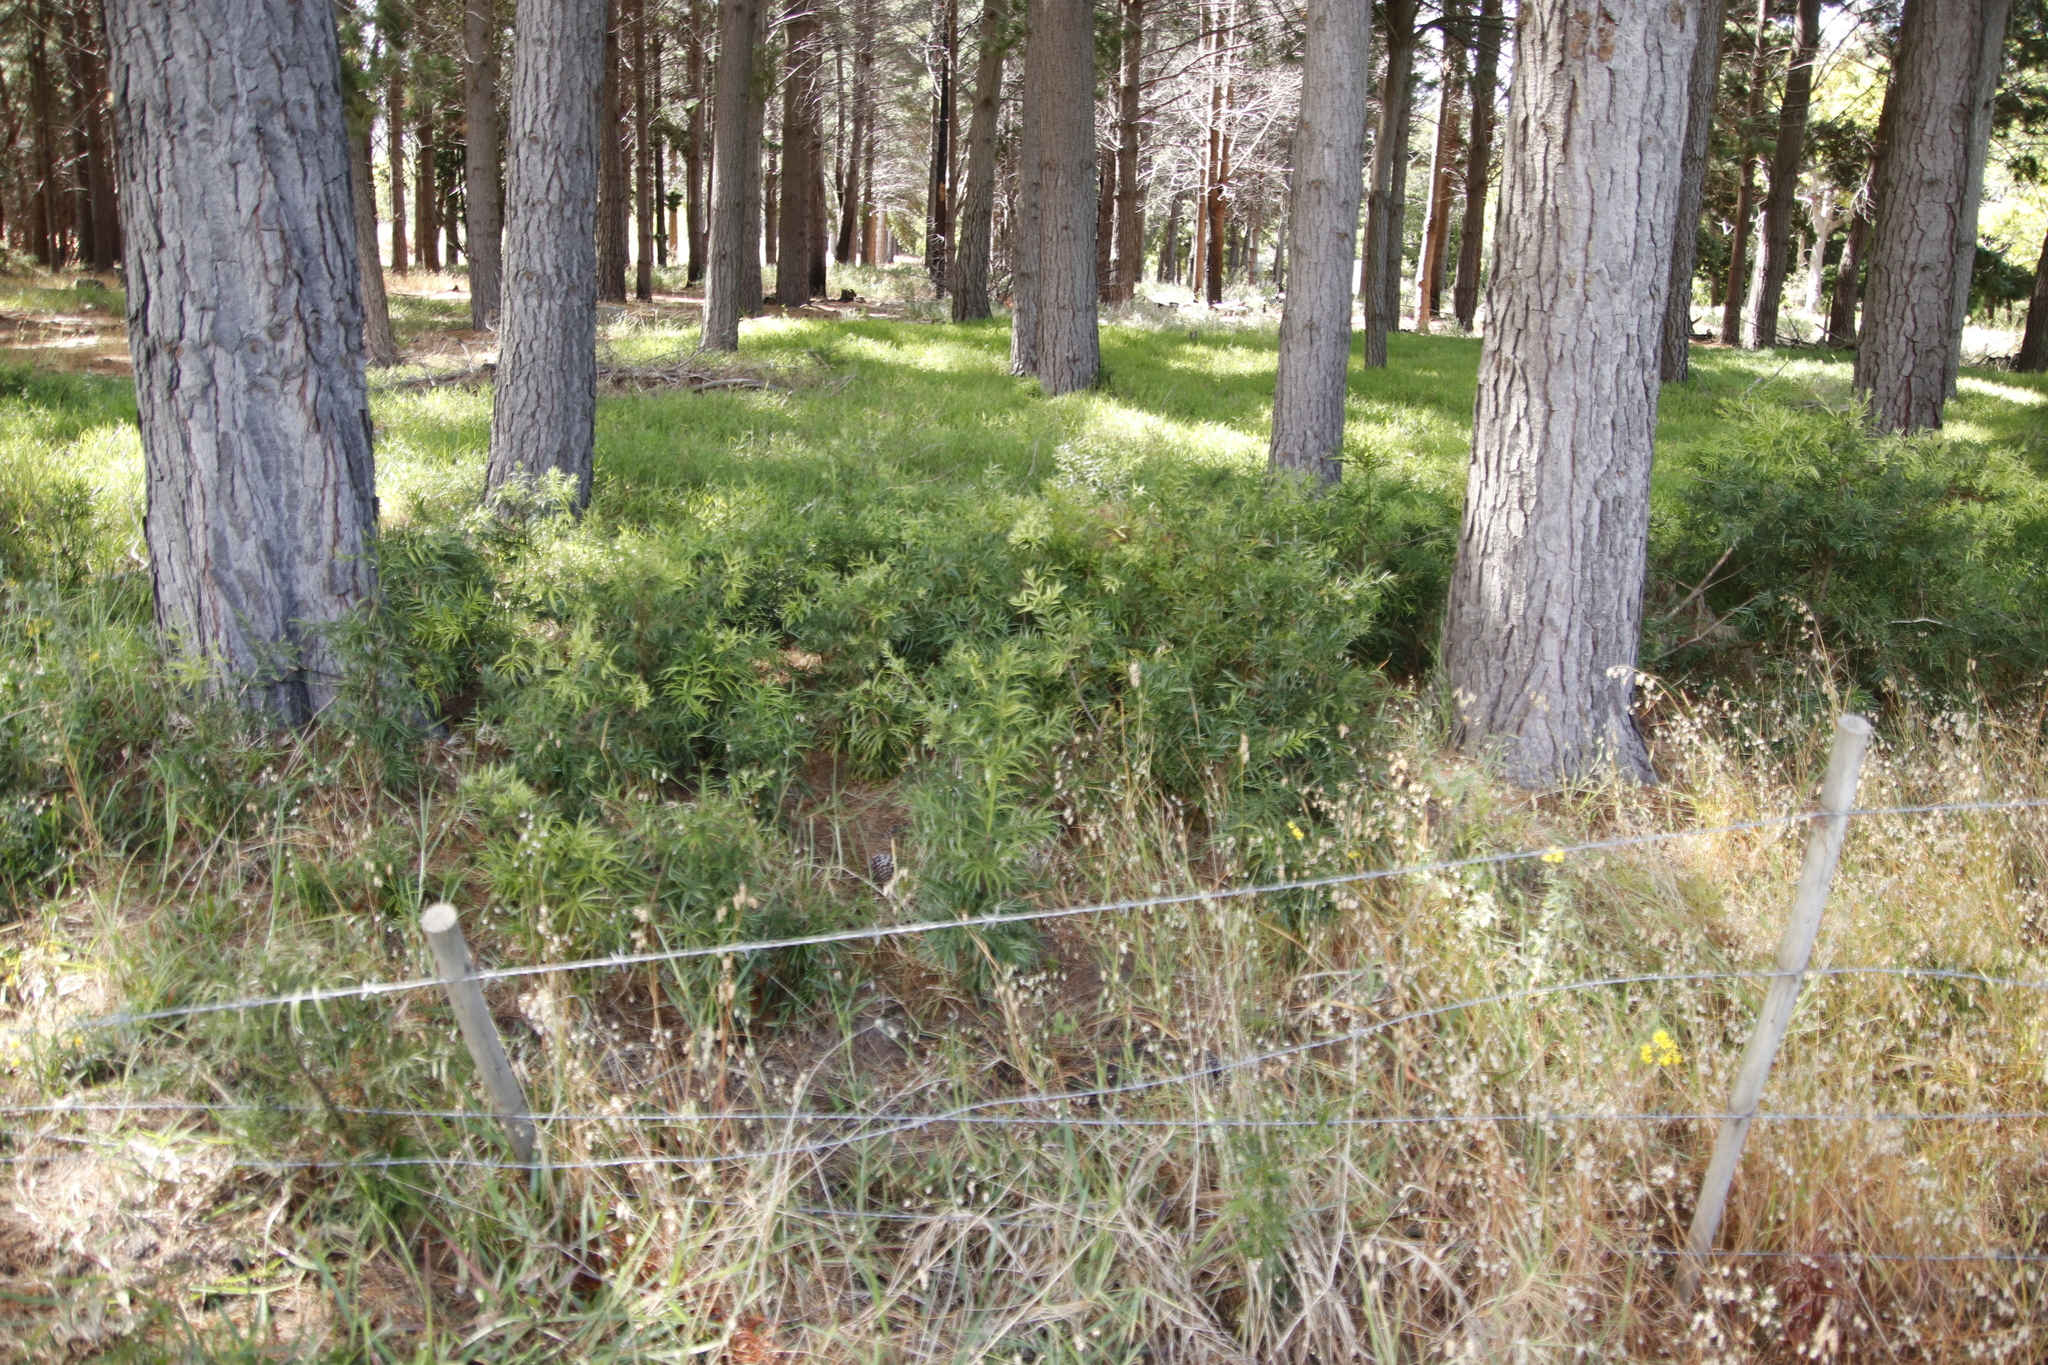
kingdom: Plantae
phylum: Tracheophyta
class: Pinopsida
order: Pinales
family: Podocarpaceae
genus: Afrocarpus
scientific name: Afrocarpus falcatus
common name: Bastard yellowwood
